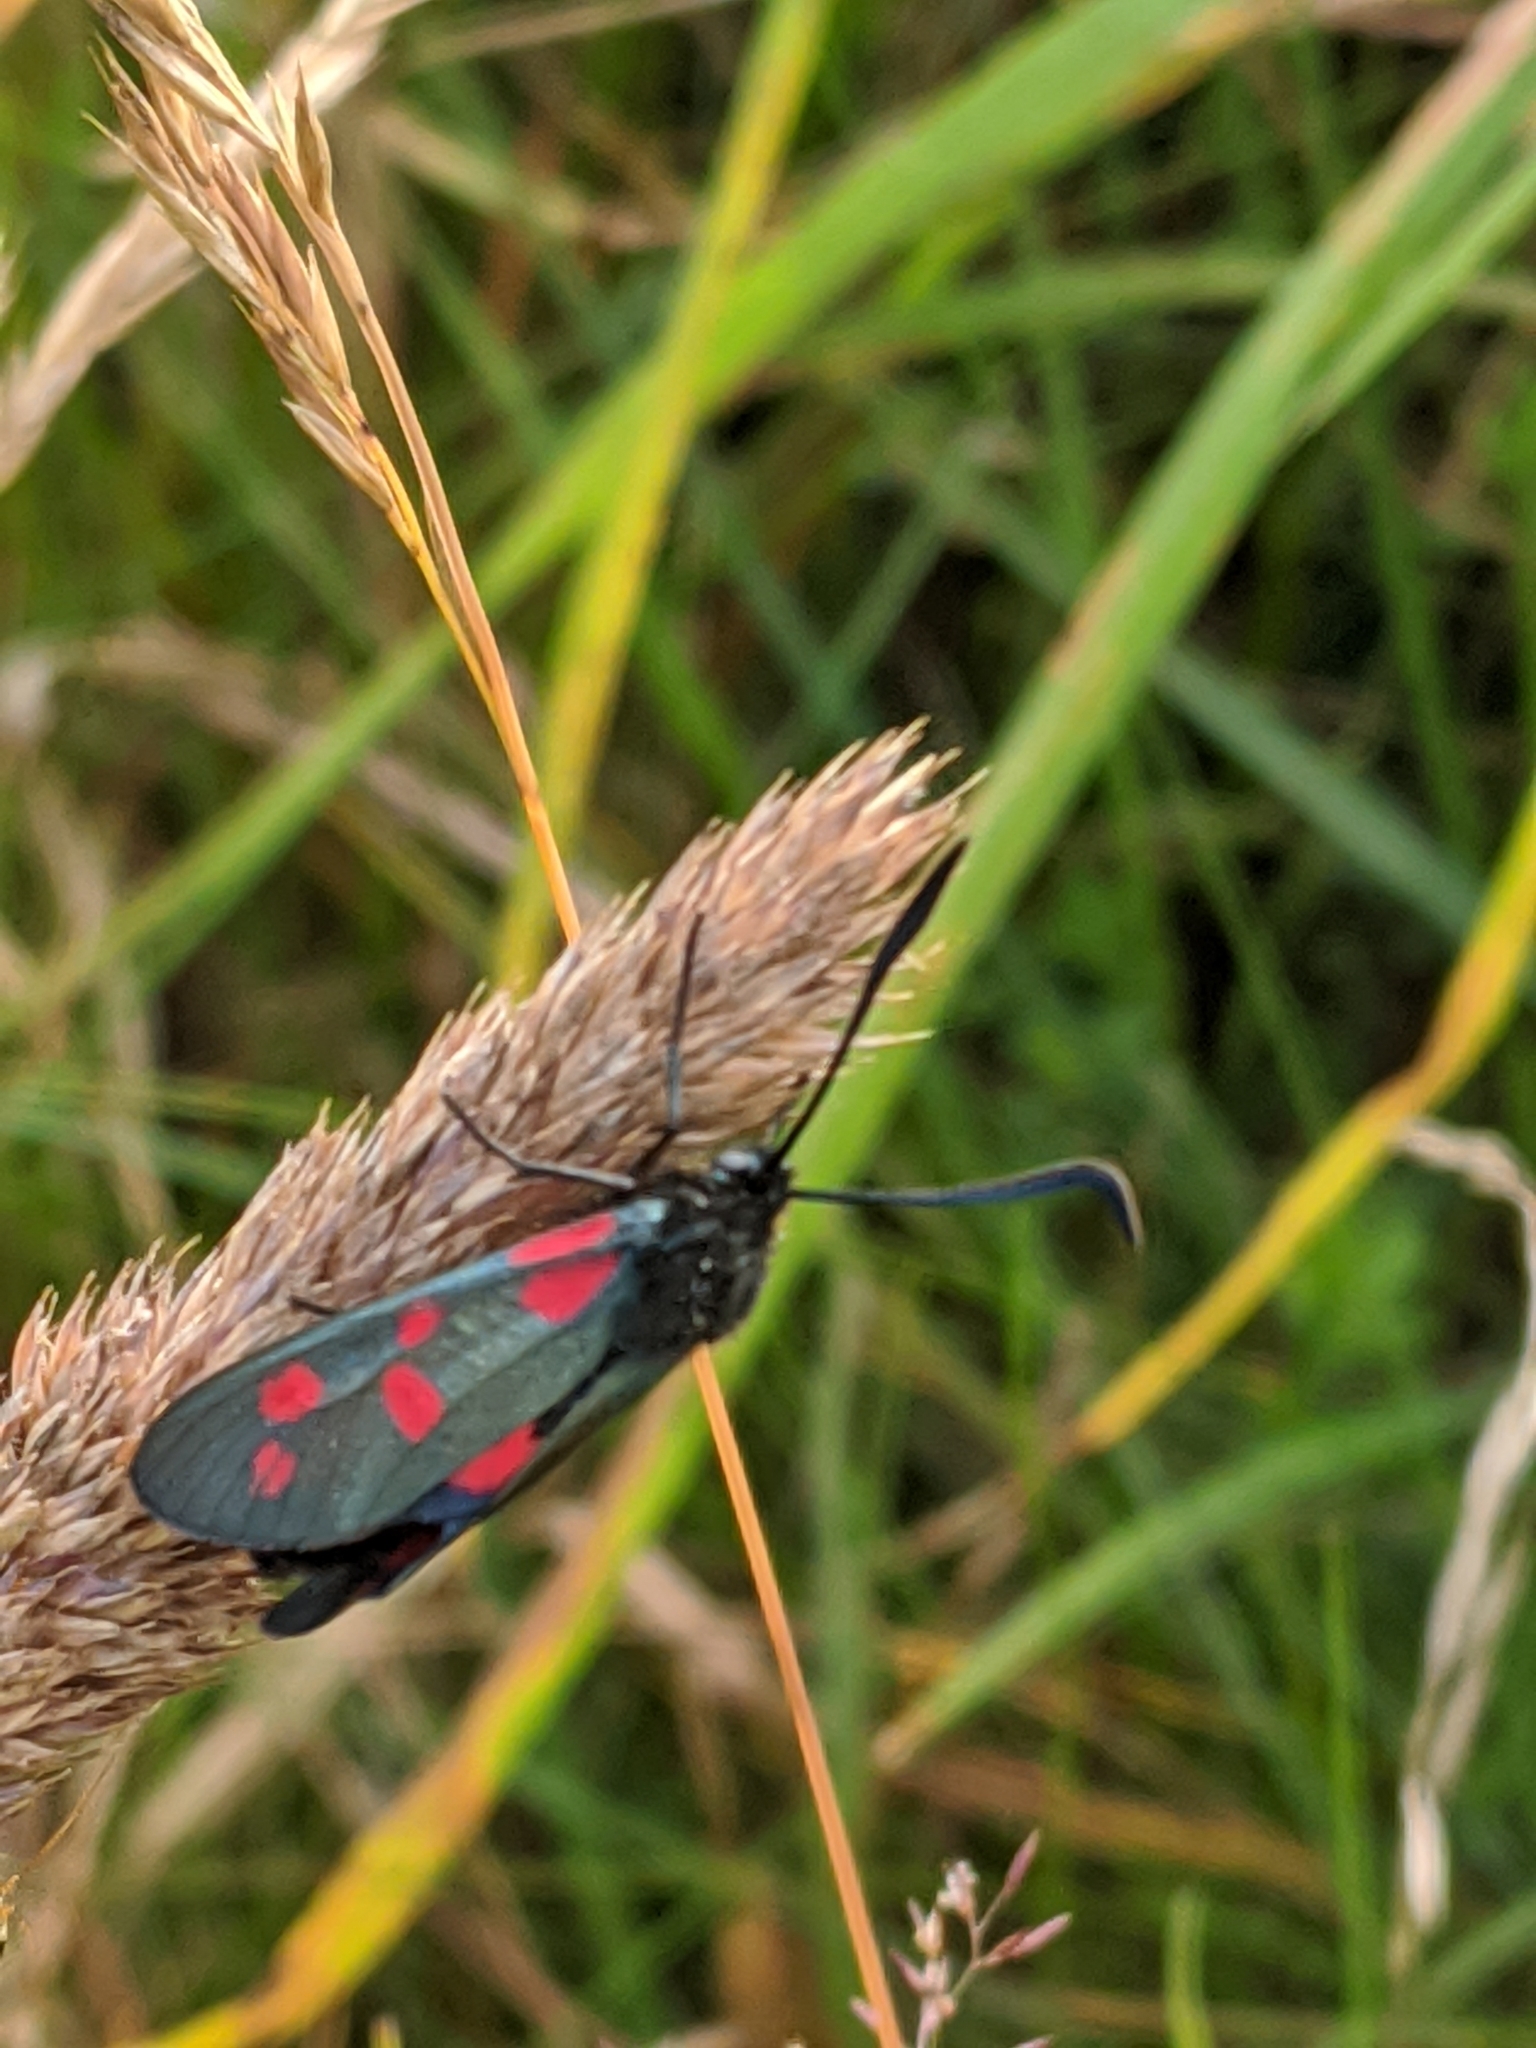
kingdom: Animalia
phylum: Arthropoda
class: Insecta
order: Lepidoptera
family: Zygaenidae
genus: Zygaena
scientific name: Zygaena filipendulae
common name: Six-spot burnet
